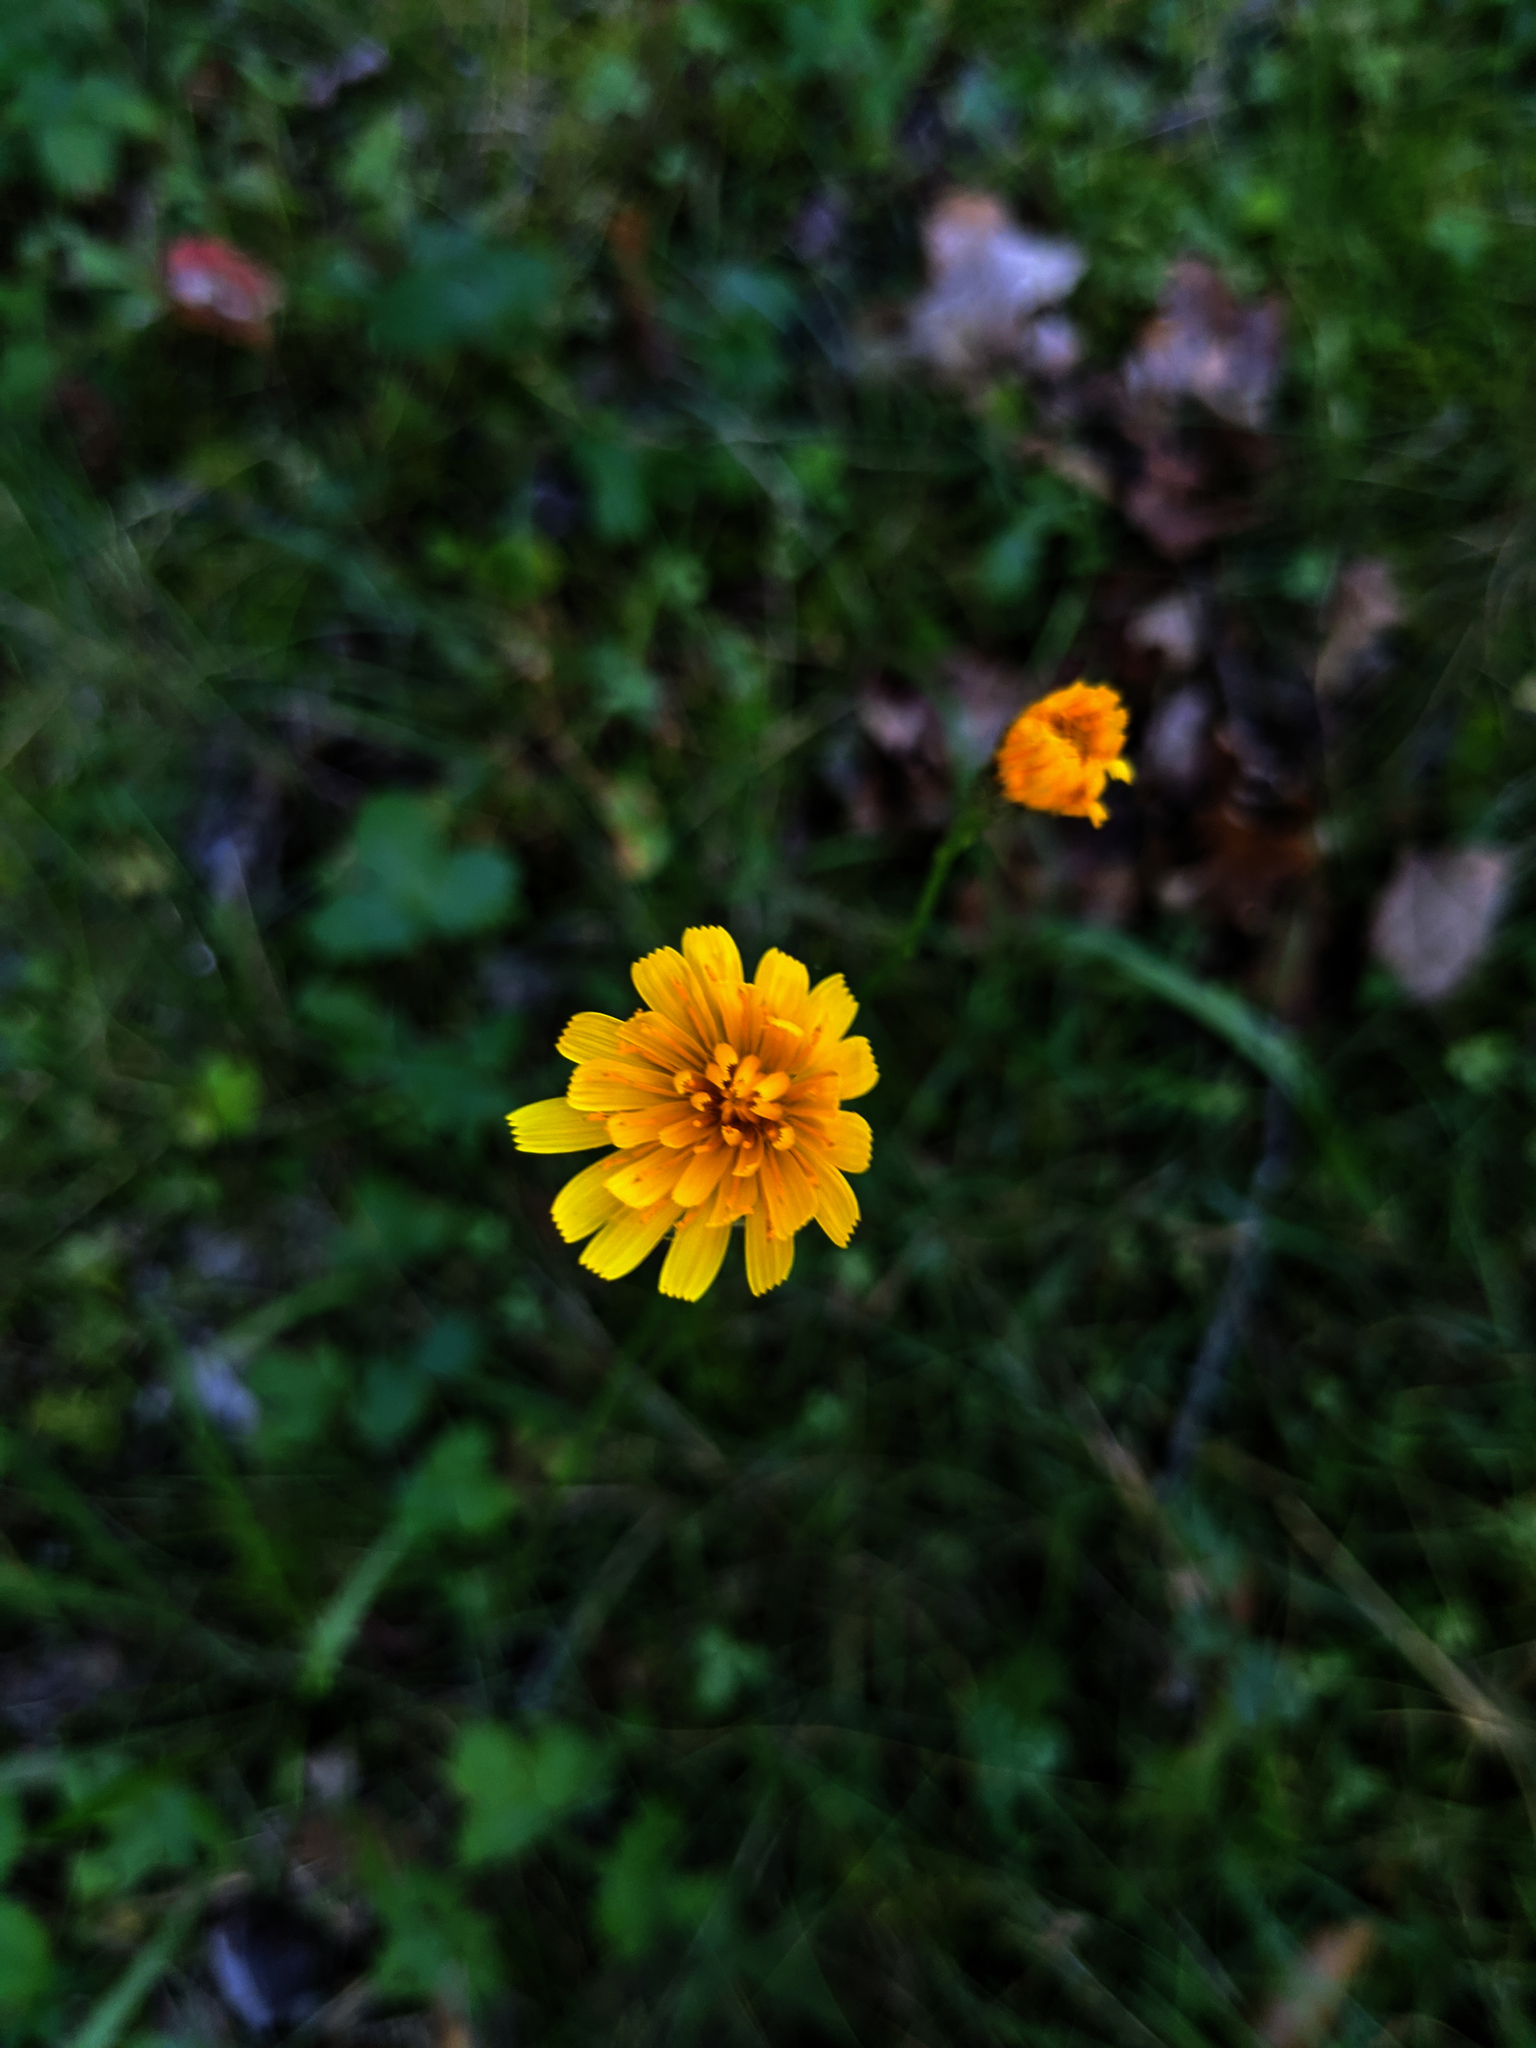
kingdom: Plantae
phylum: Tracheophyta
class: Magnoliopsida
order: Asterales
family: Asteraceae
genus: Scorzoneroides
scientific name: Scorzoneroides autumnalis
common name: Autumn hawkbit
